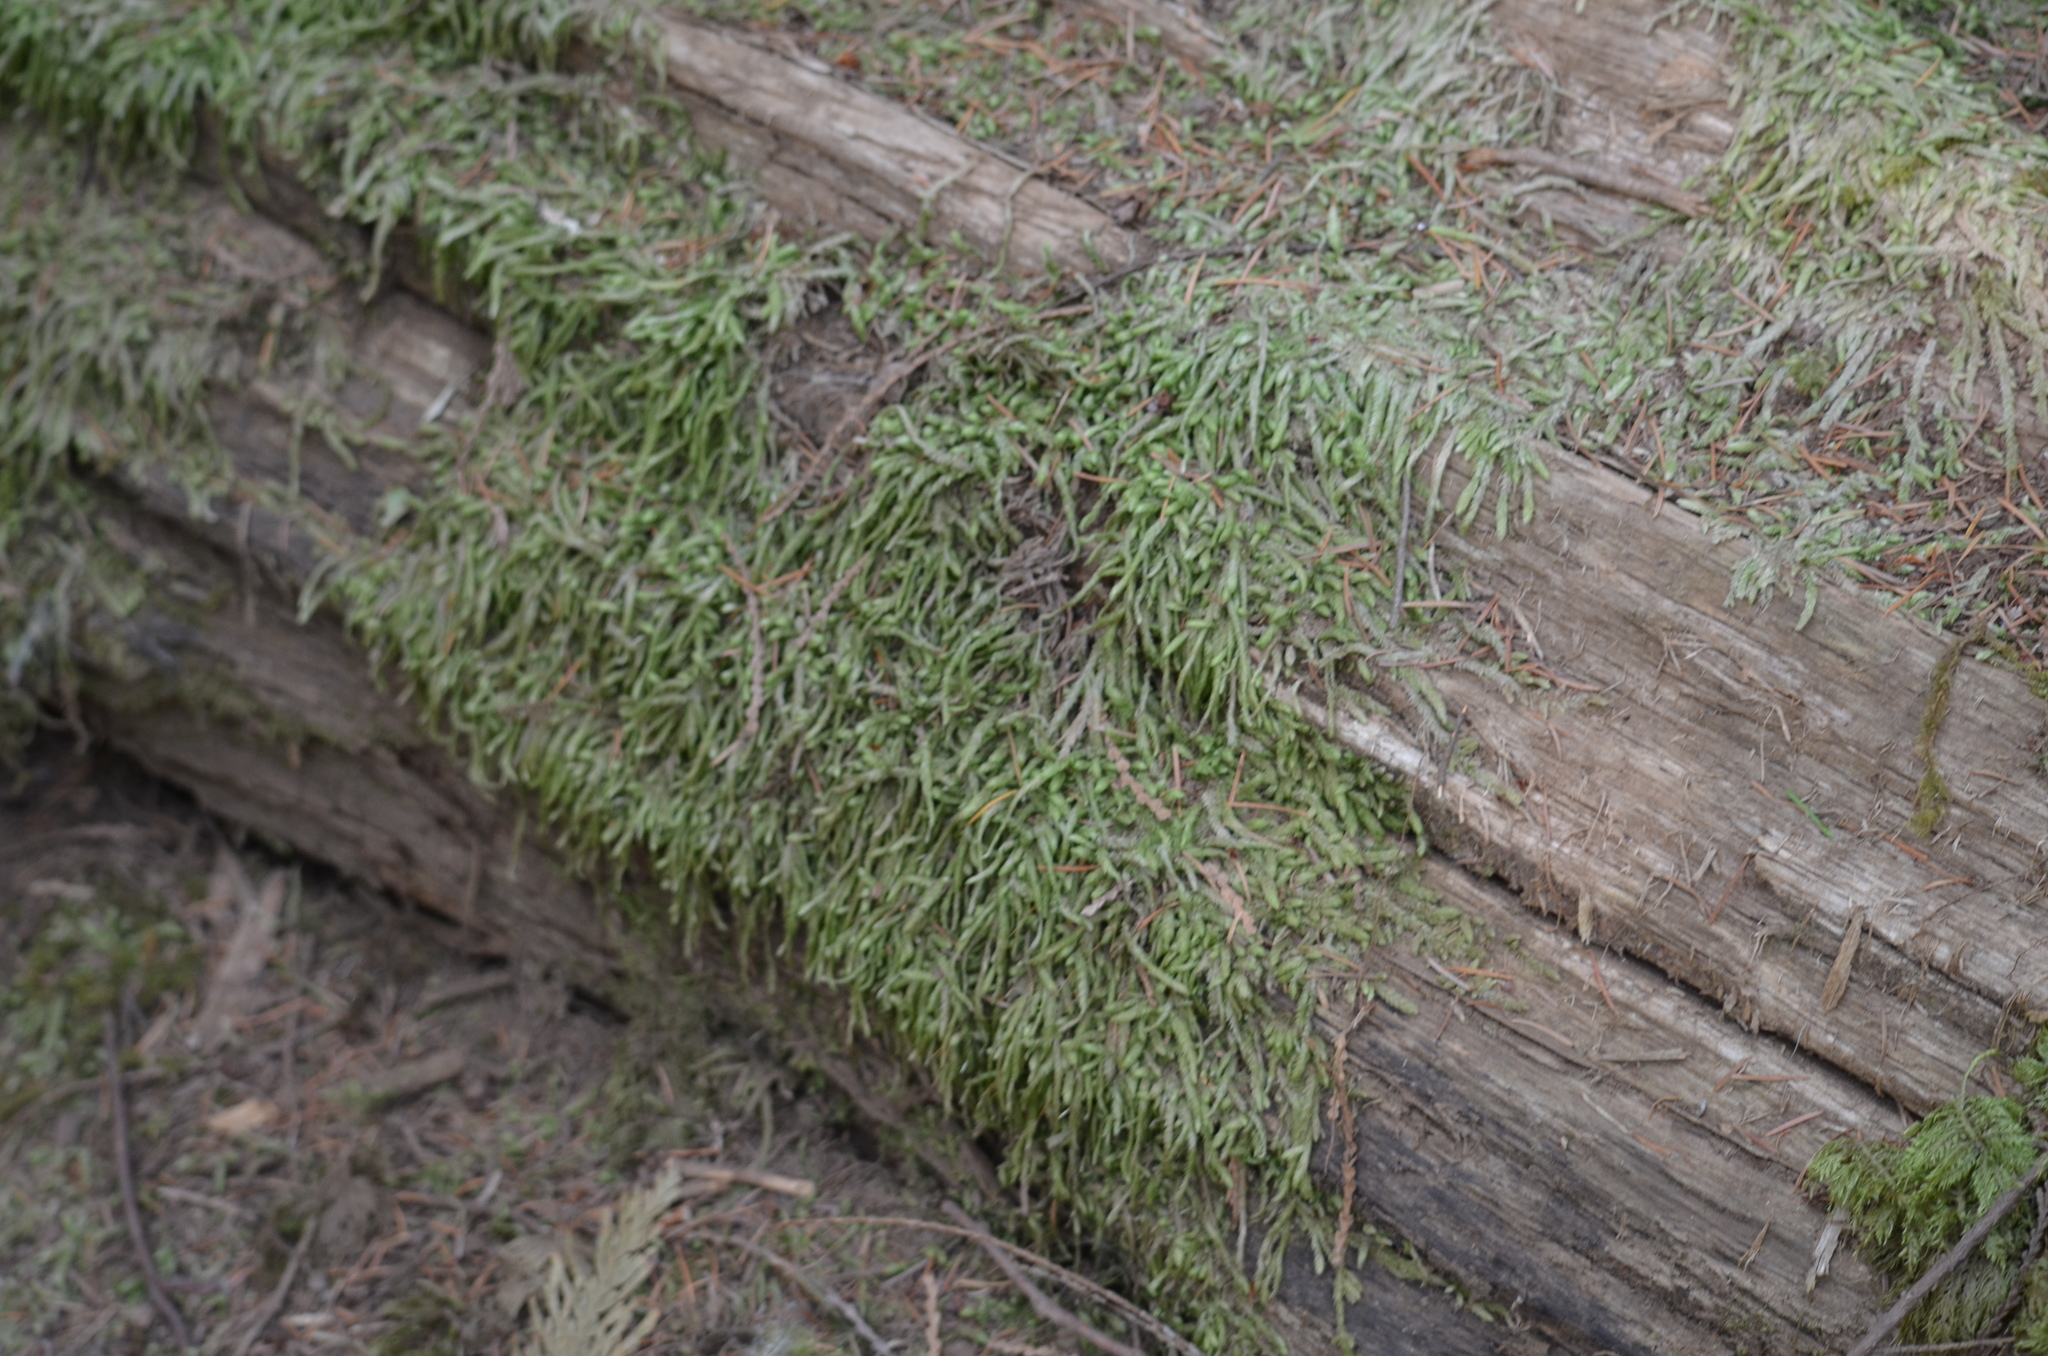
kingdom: Plantae
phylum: Bryophyta
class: Bryopsida
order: Hypnales
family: Plagiotheciaceae
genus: Plagiothecium
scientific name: Plagiothecium undulatum
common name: Waved silk-moss
